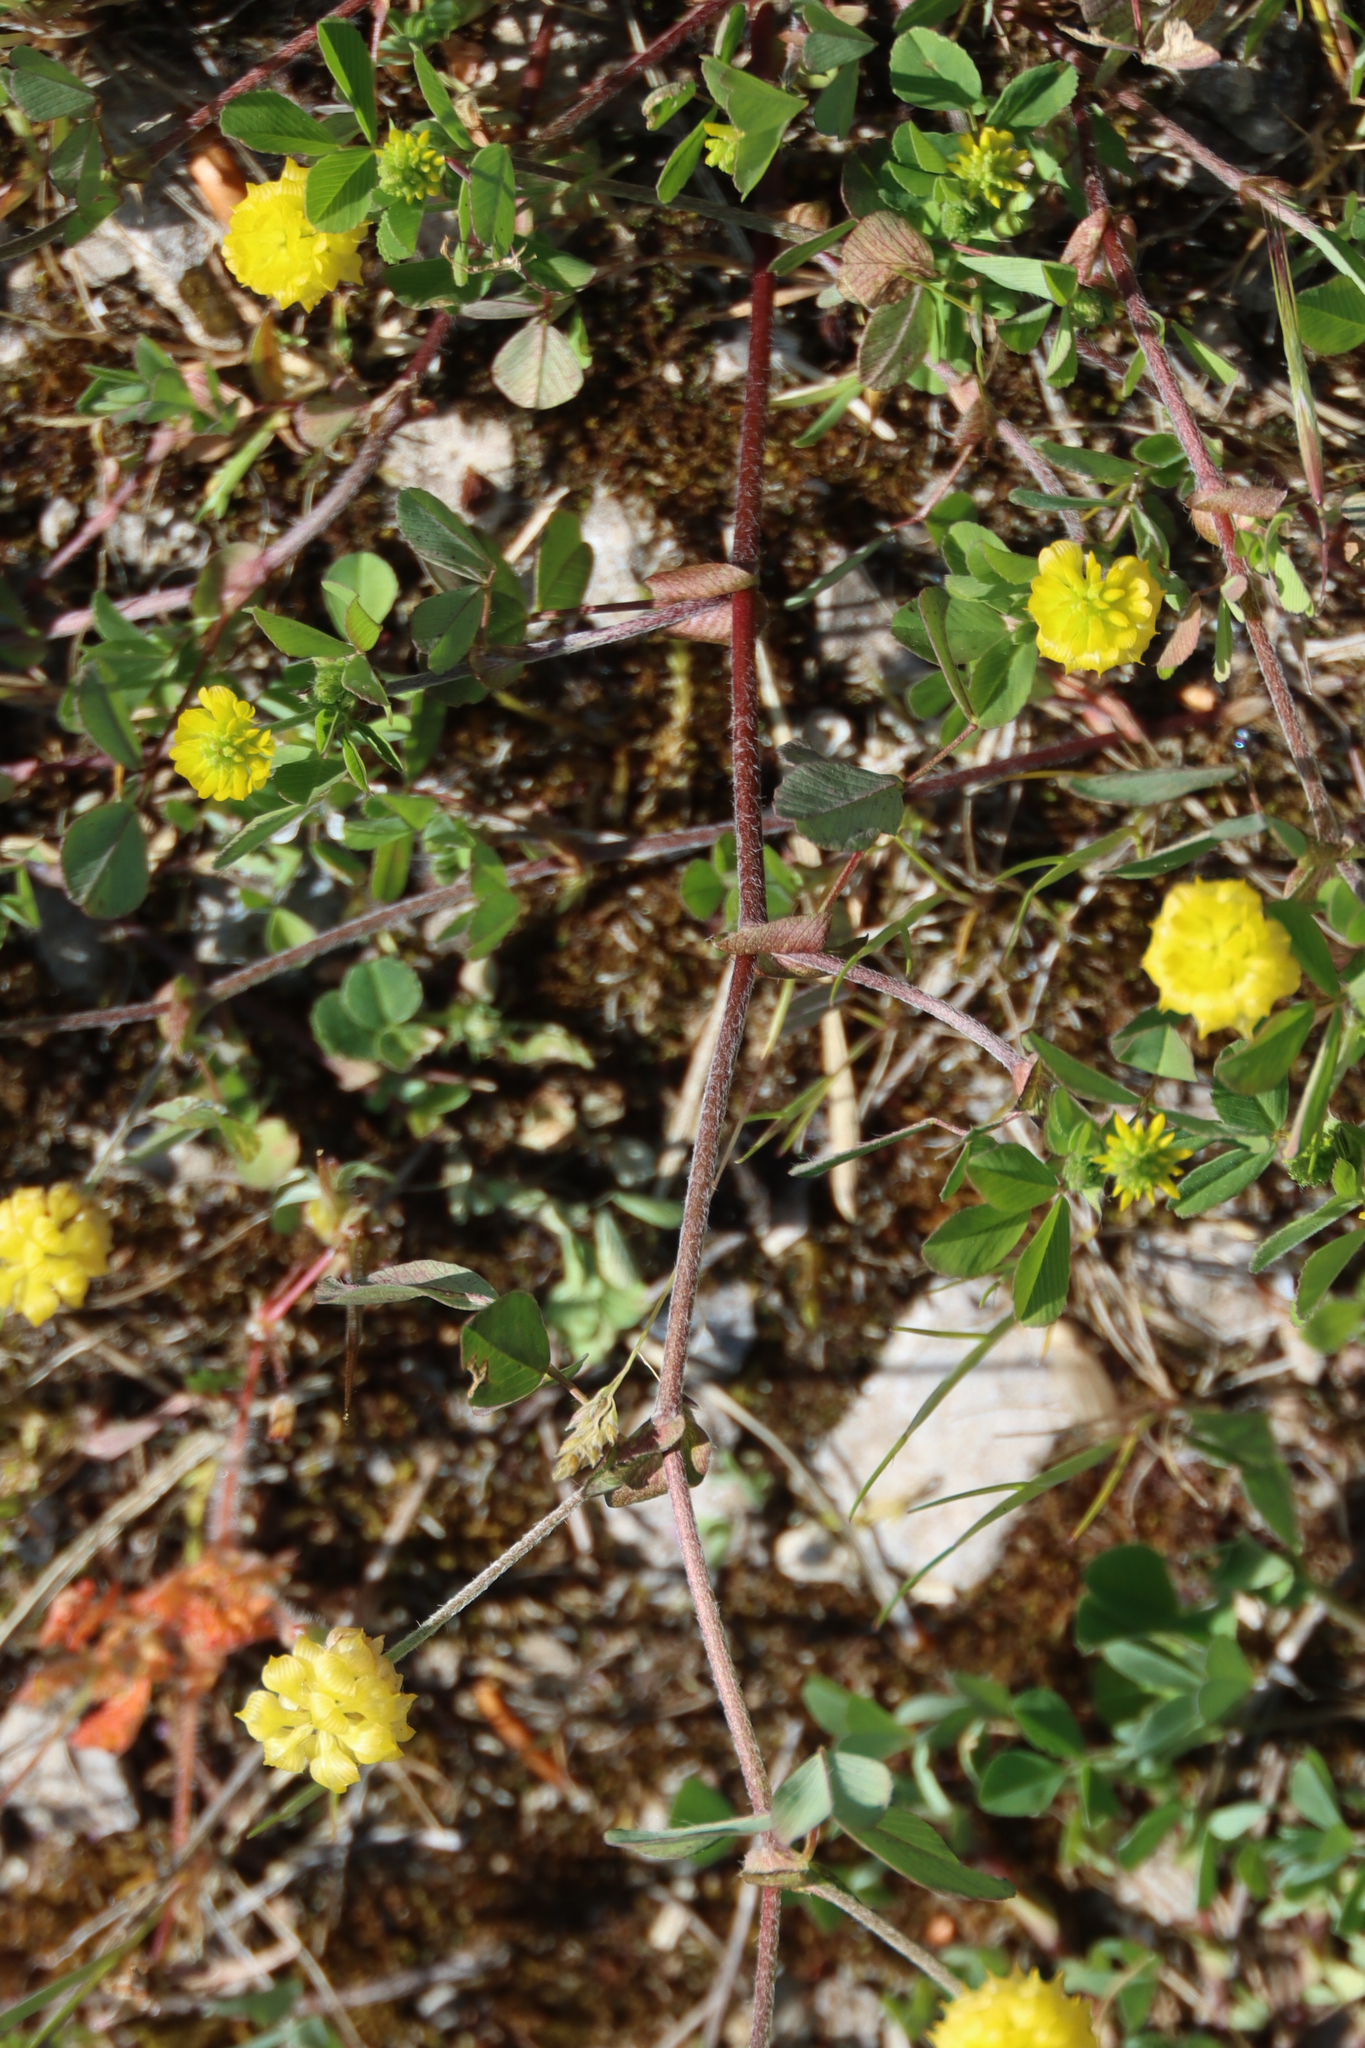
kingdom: Plantae
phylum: Tracheophyta
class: Magnoliopsida
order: Fabales
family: Fabaceae
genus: Trifolium
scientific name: Trifolium campestre
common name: Field clover
